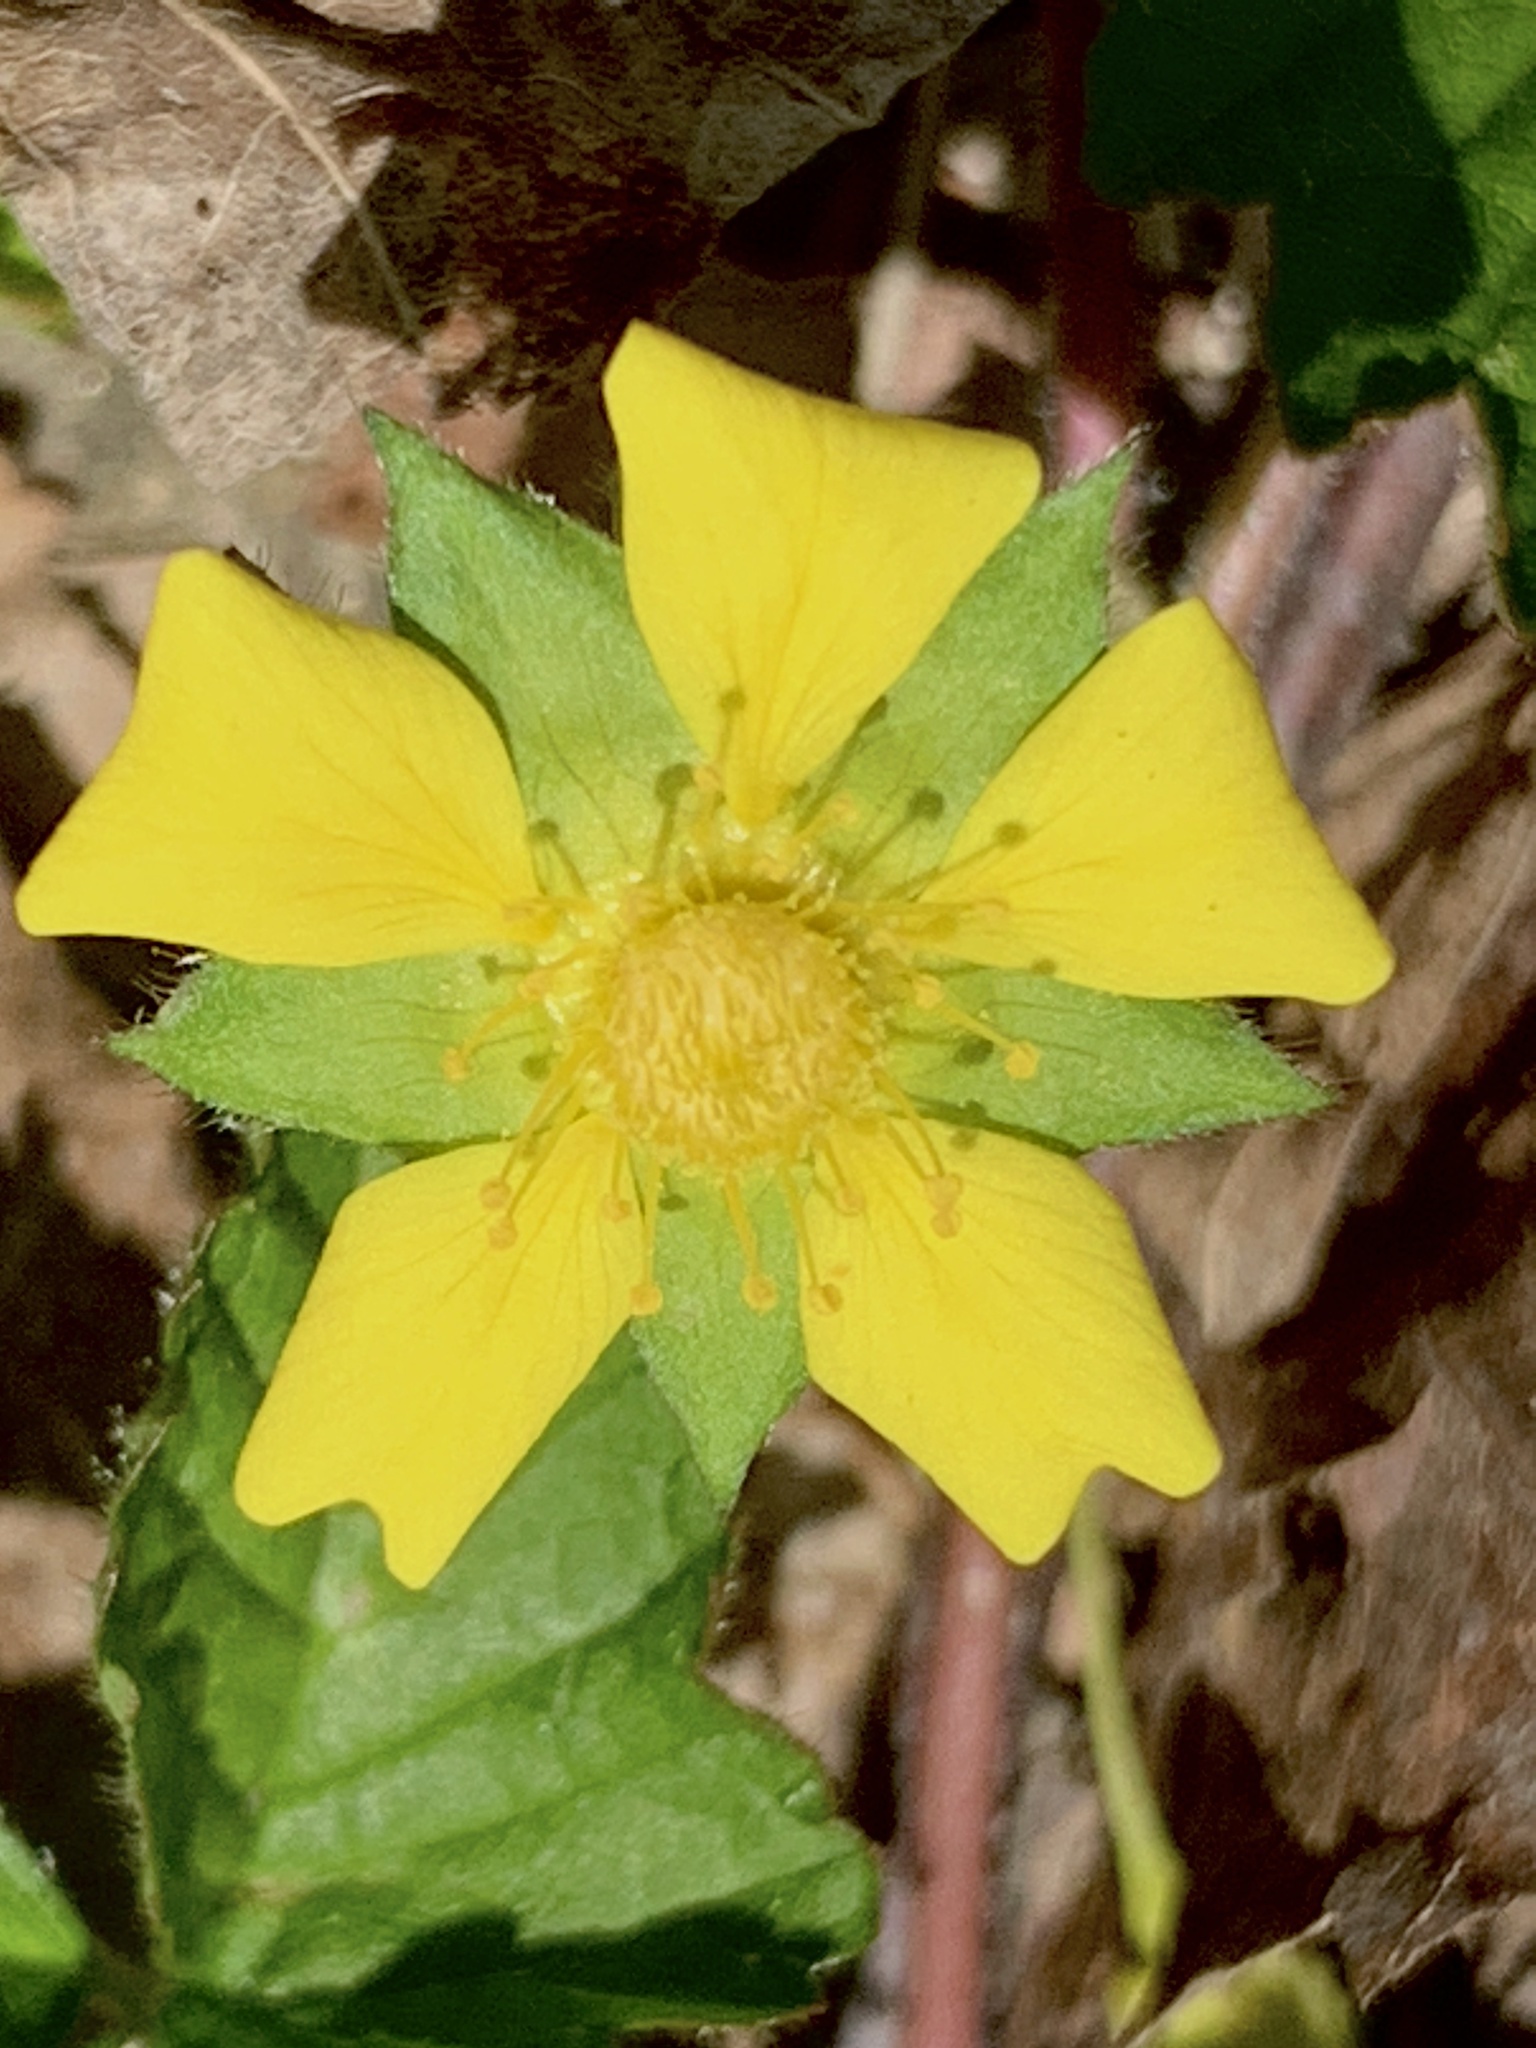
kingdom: Plantae
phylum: Tracheophyta
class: Magnoliopsida
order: Rosales
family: Rosaceae
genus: Potentilla
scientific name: Potentilla indica
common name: Yellow-flowered strawberry
